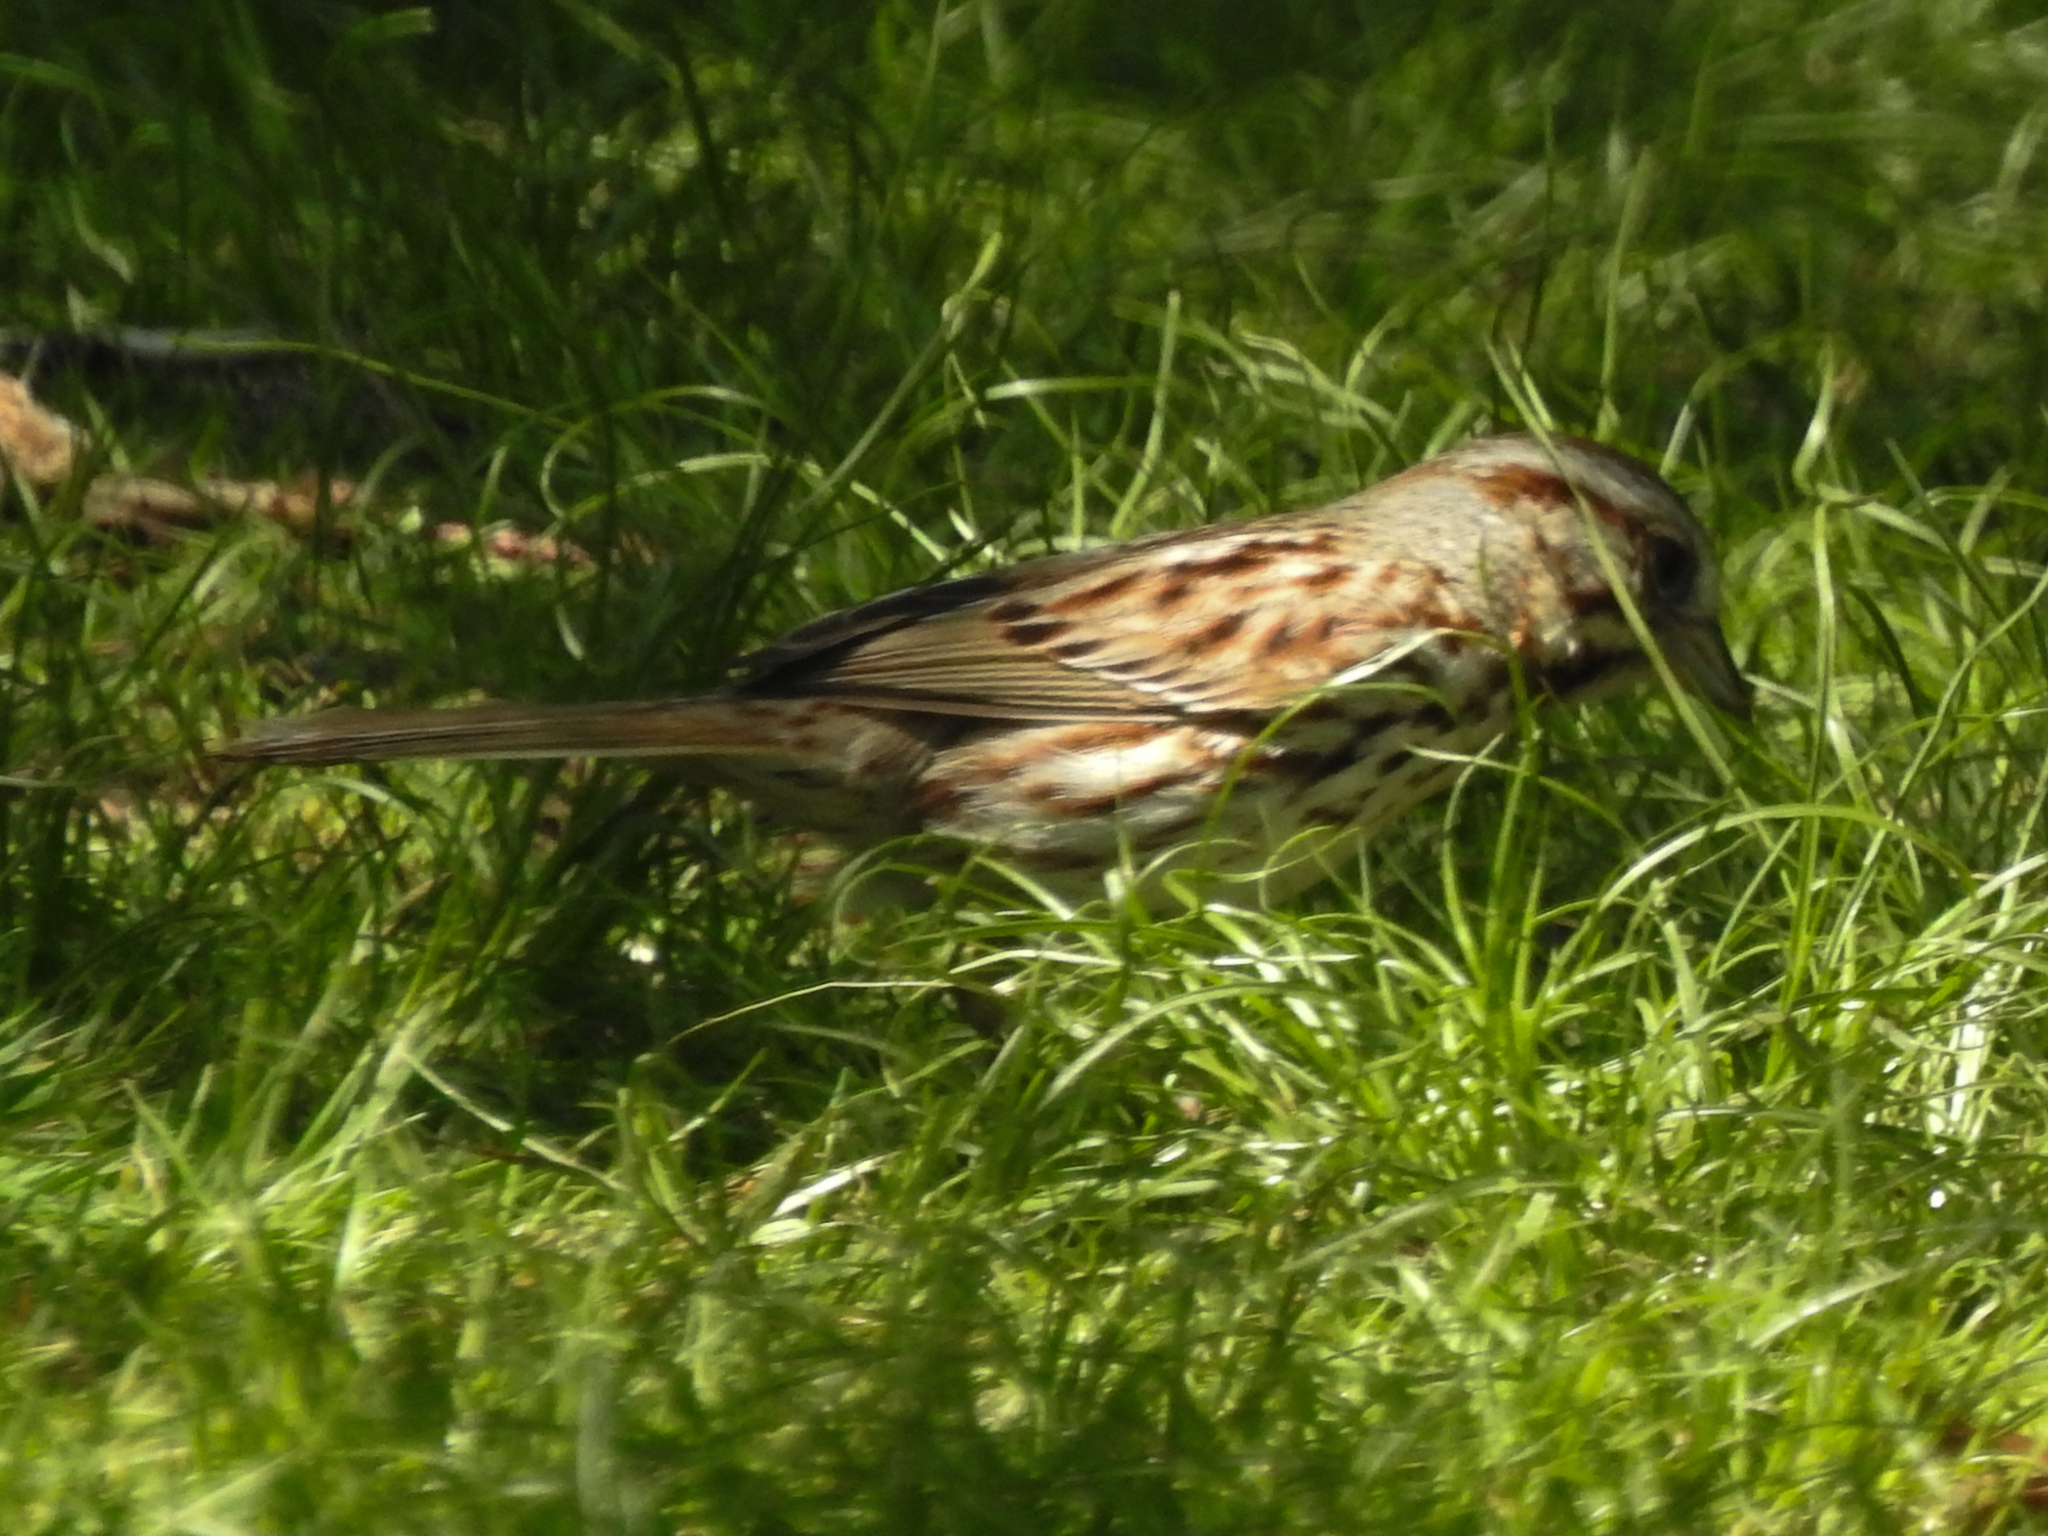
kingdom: Animalia
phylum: Chordata
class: Aves
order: Passeriformes
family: Passerellidae
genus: Melospiza
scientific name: Melospiza melodia
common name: Song sparrow
